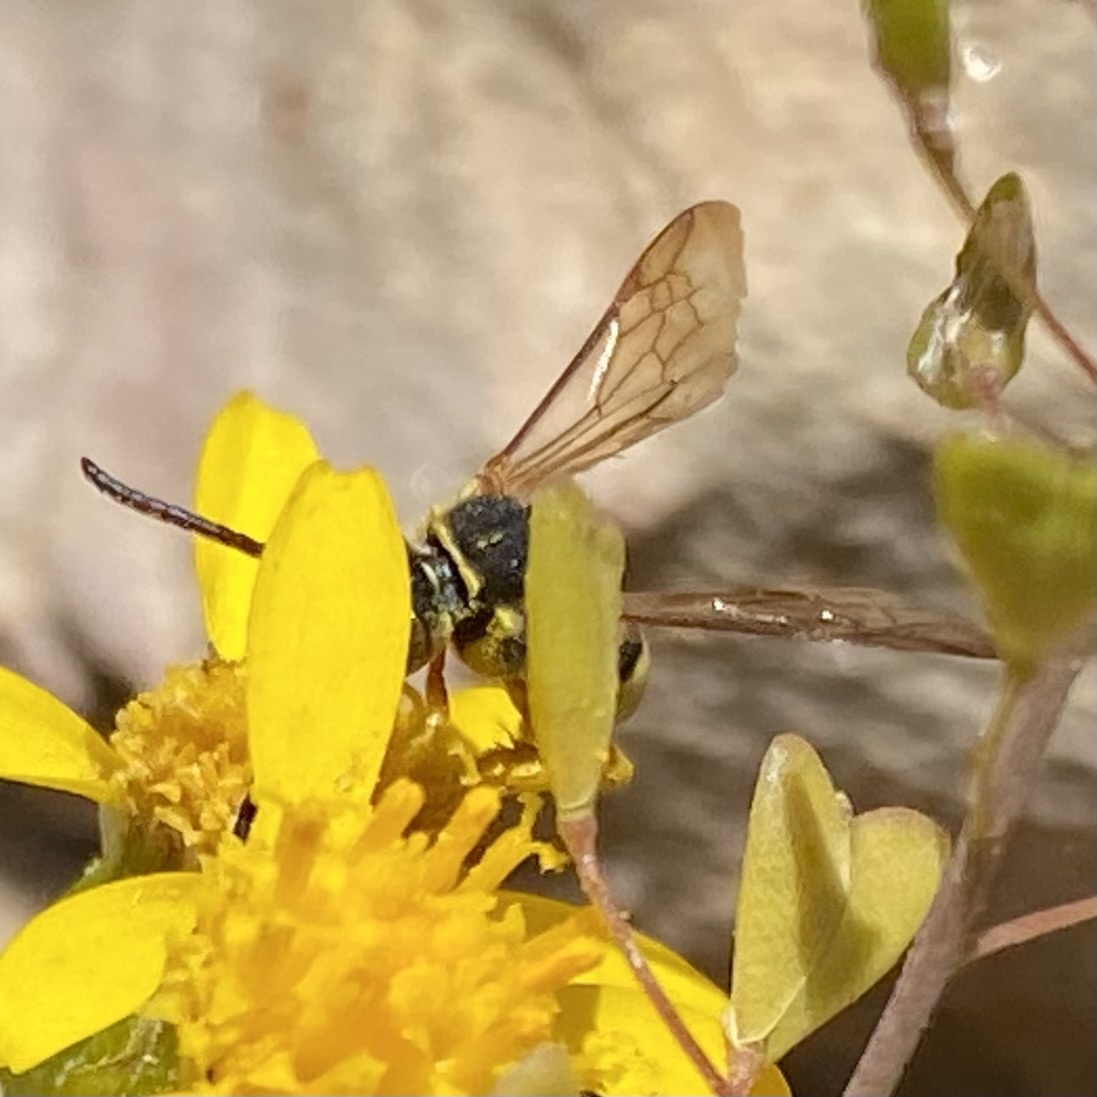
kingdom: Animalia
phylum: Arthropoda
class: Insecta
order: Hymenoptera
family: Apidae
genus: Nomada
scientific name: Nomada
